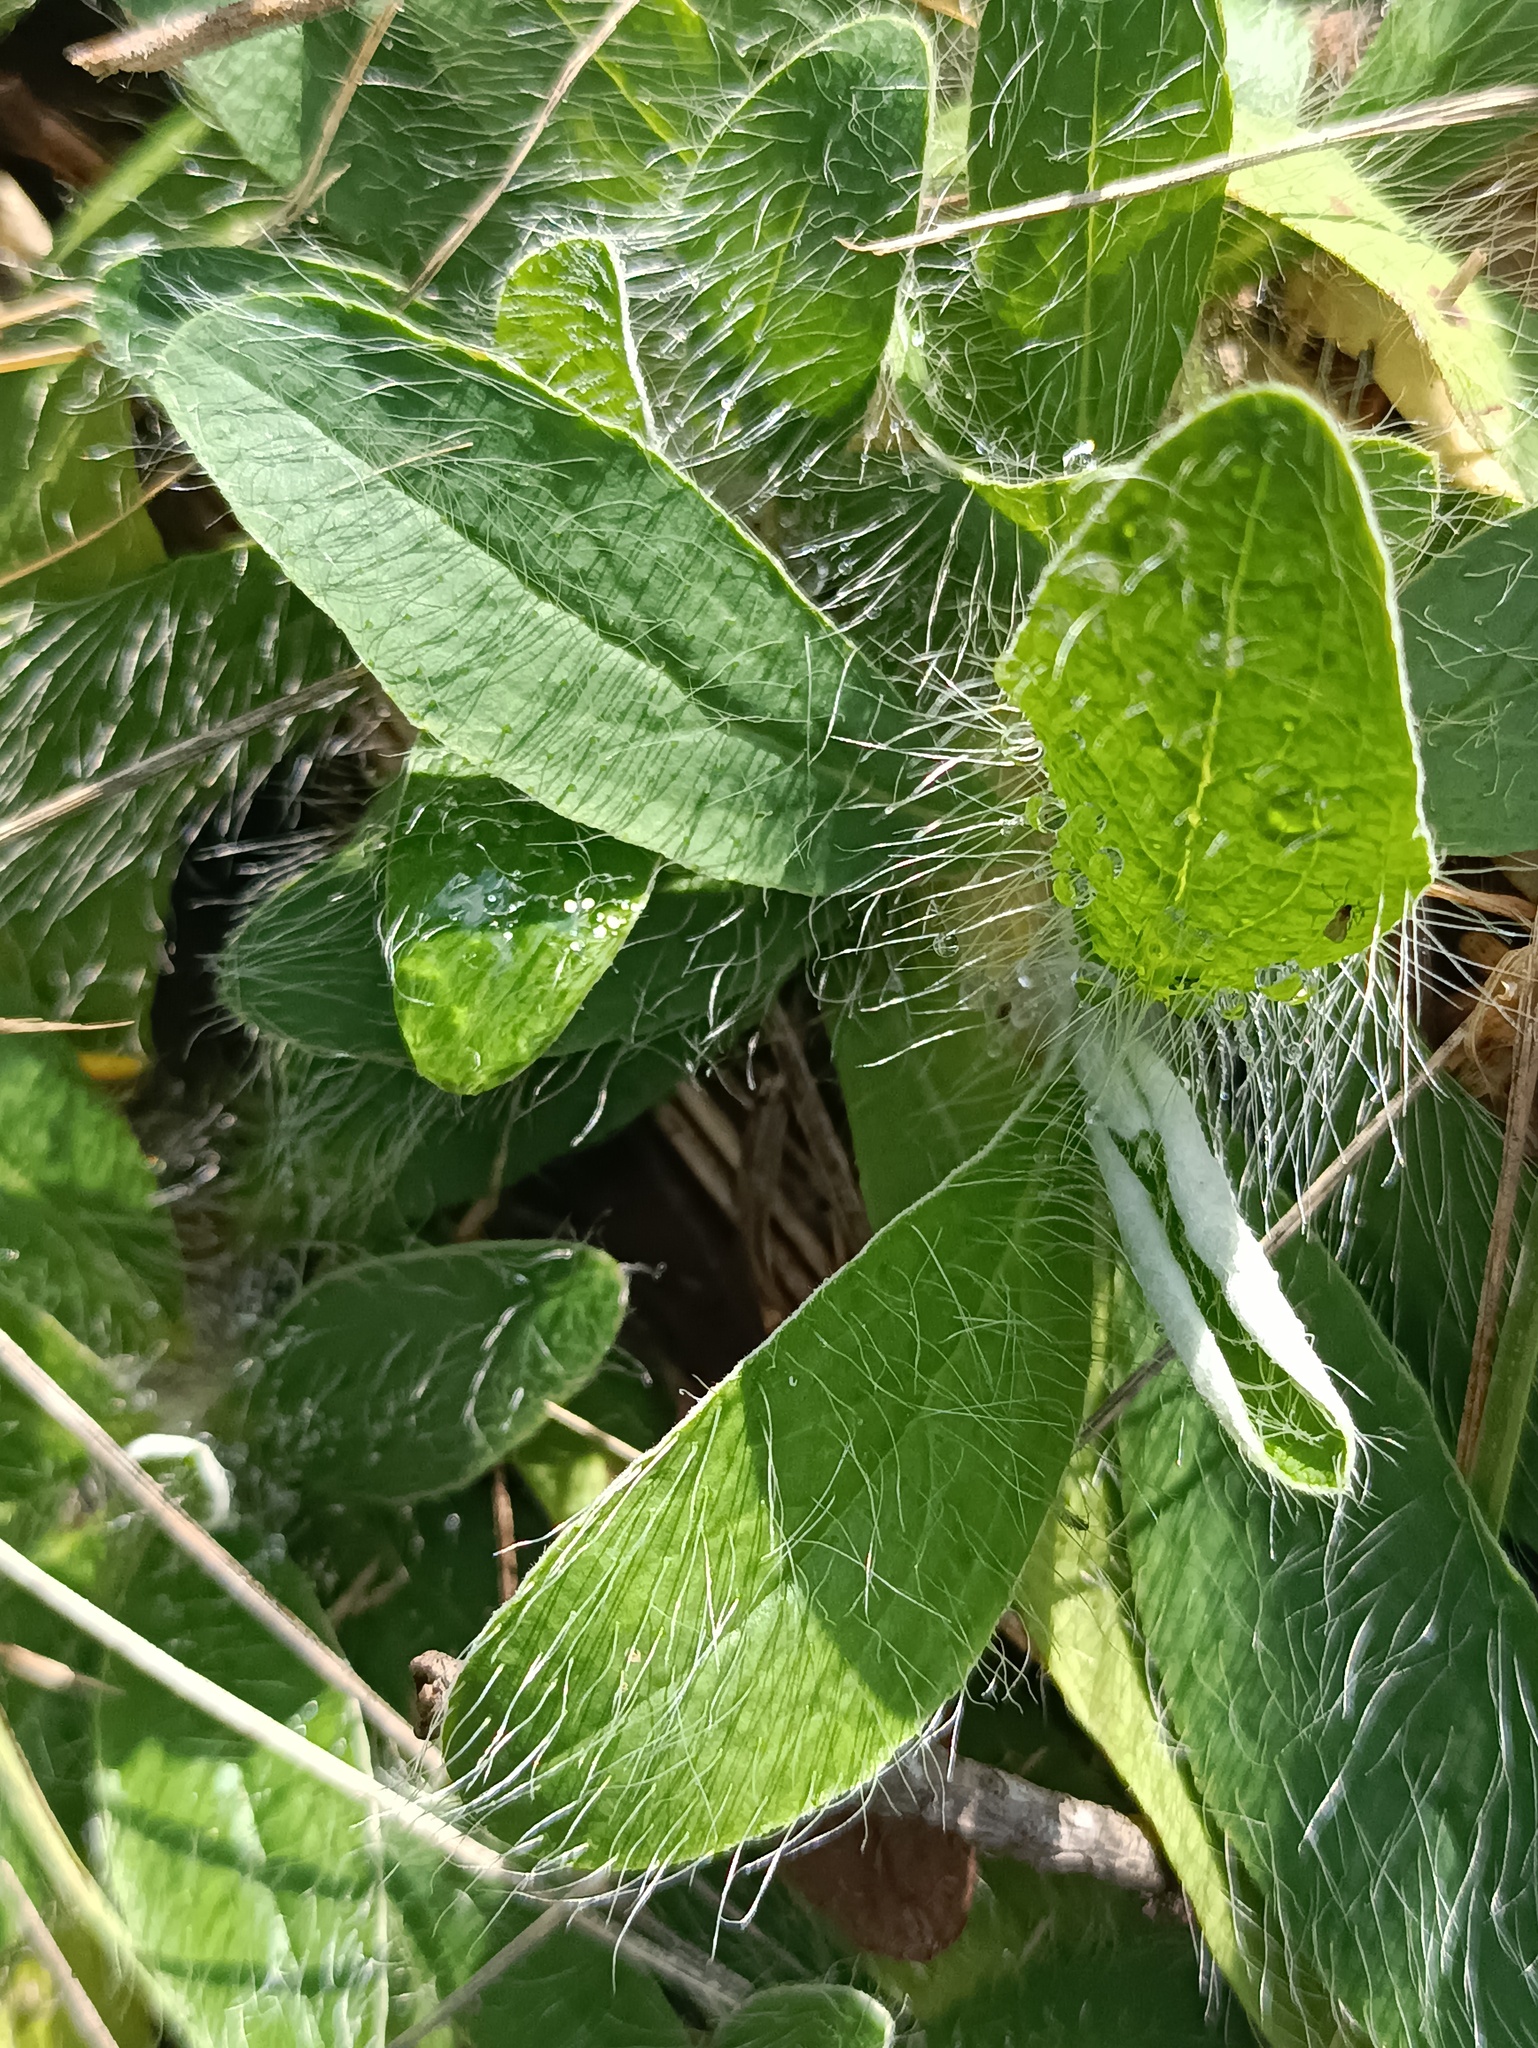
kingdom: Plantae
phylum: Tracheophyta
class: Magnoliopsida
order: Asterales
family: Asteraceae
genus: Pilosella
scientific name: Pilosella officinarum
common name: Mouse-ear hawkweed
